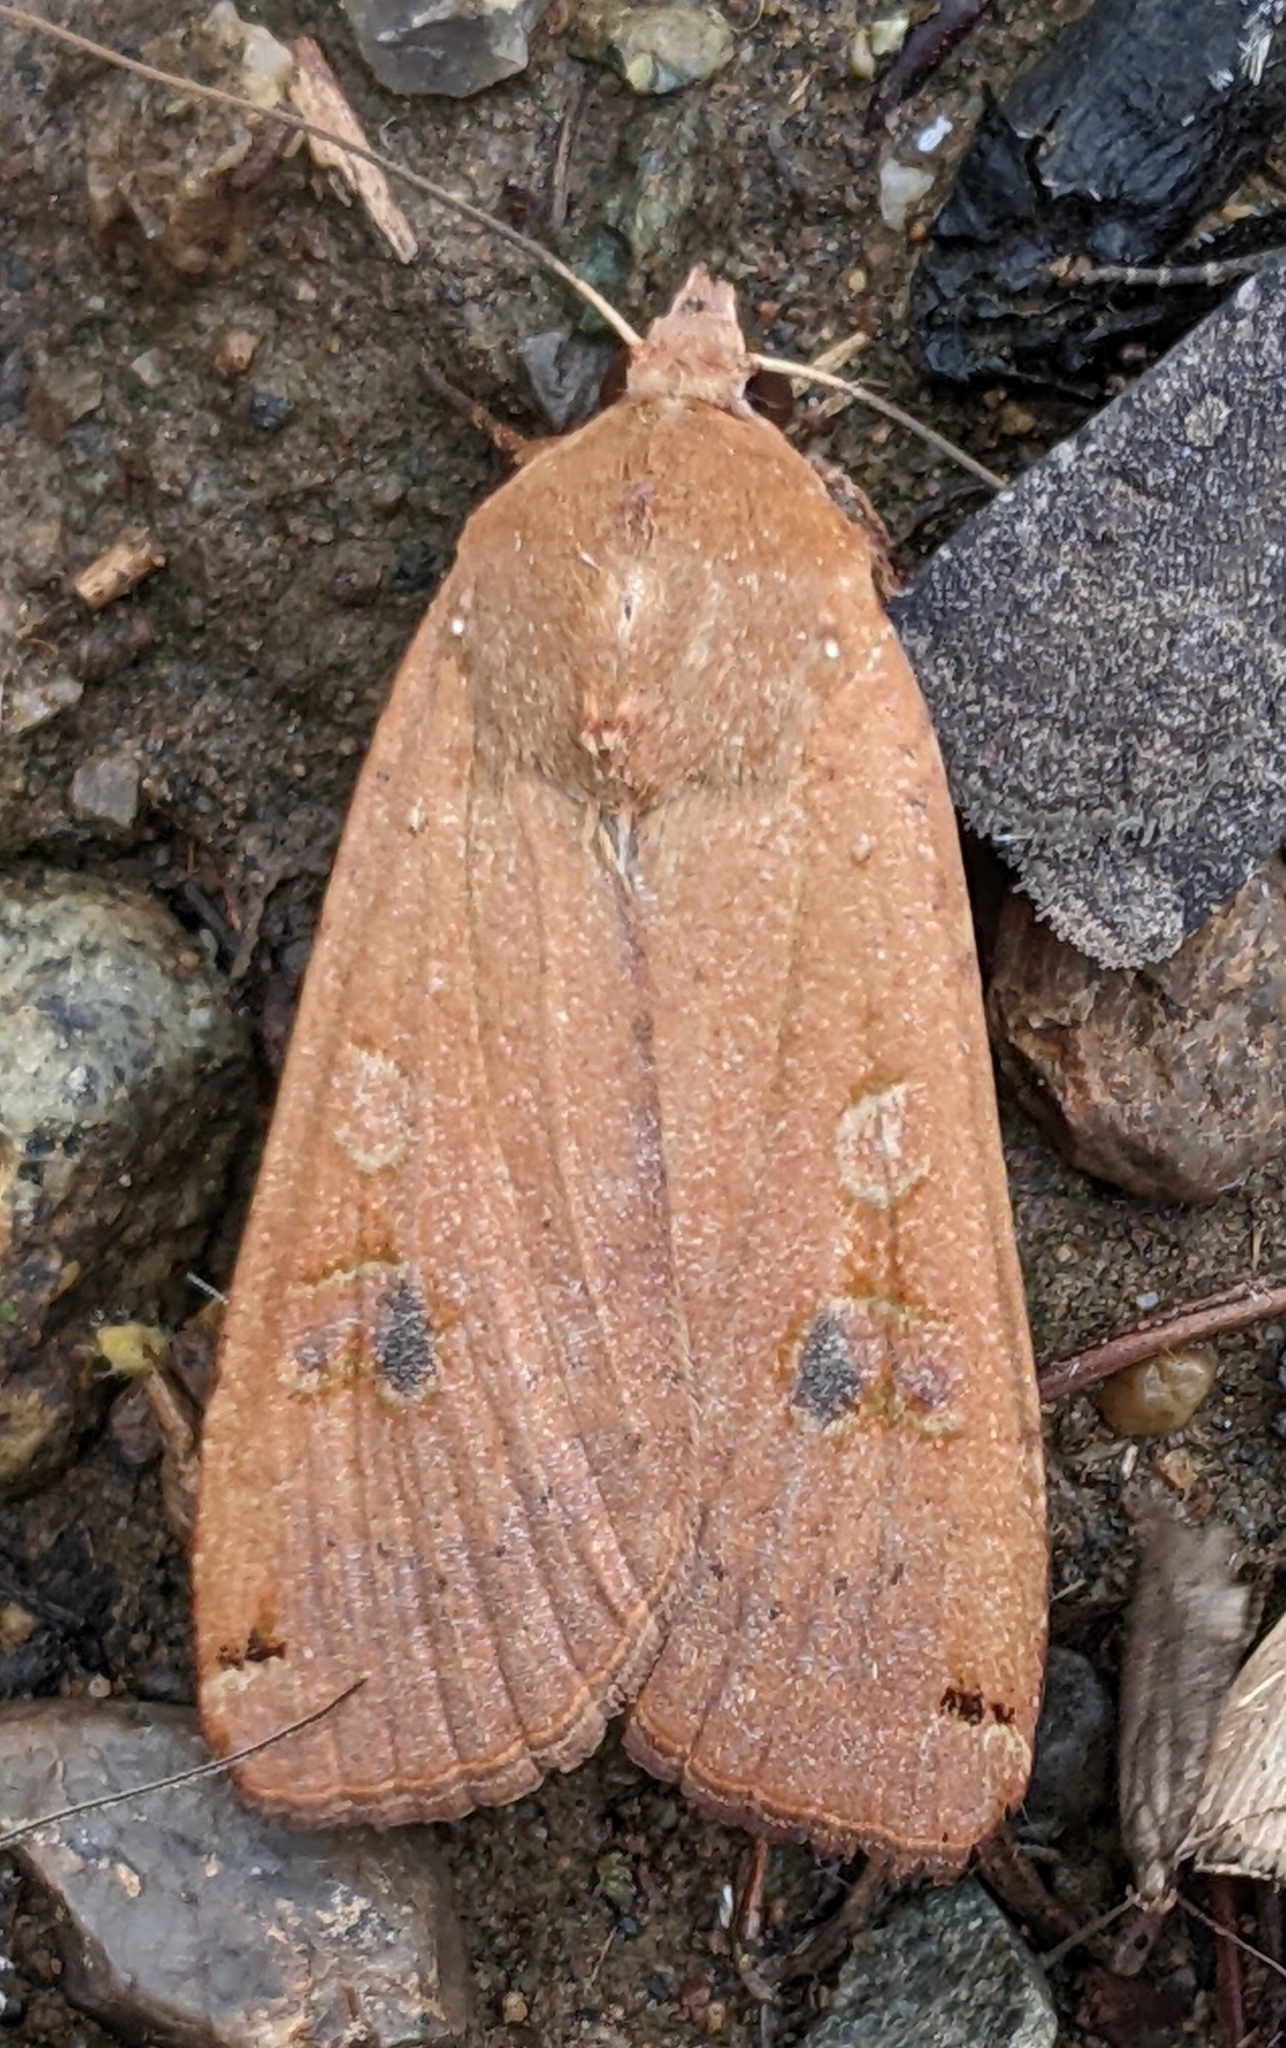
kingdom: Animalia
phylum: Arthropoda
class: Insecta
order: Lepidoptera
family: Noctuidae
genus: Noctua
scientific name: Noctua pronuba
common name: Large yellow underwing
